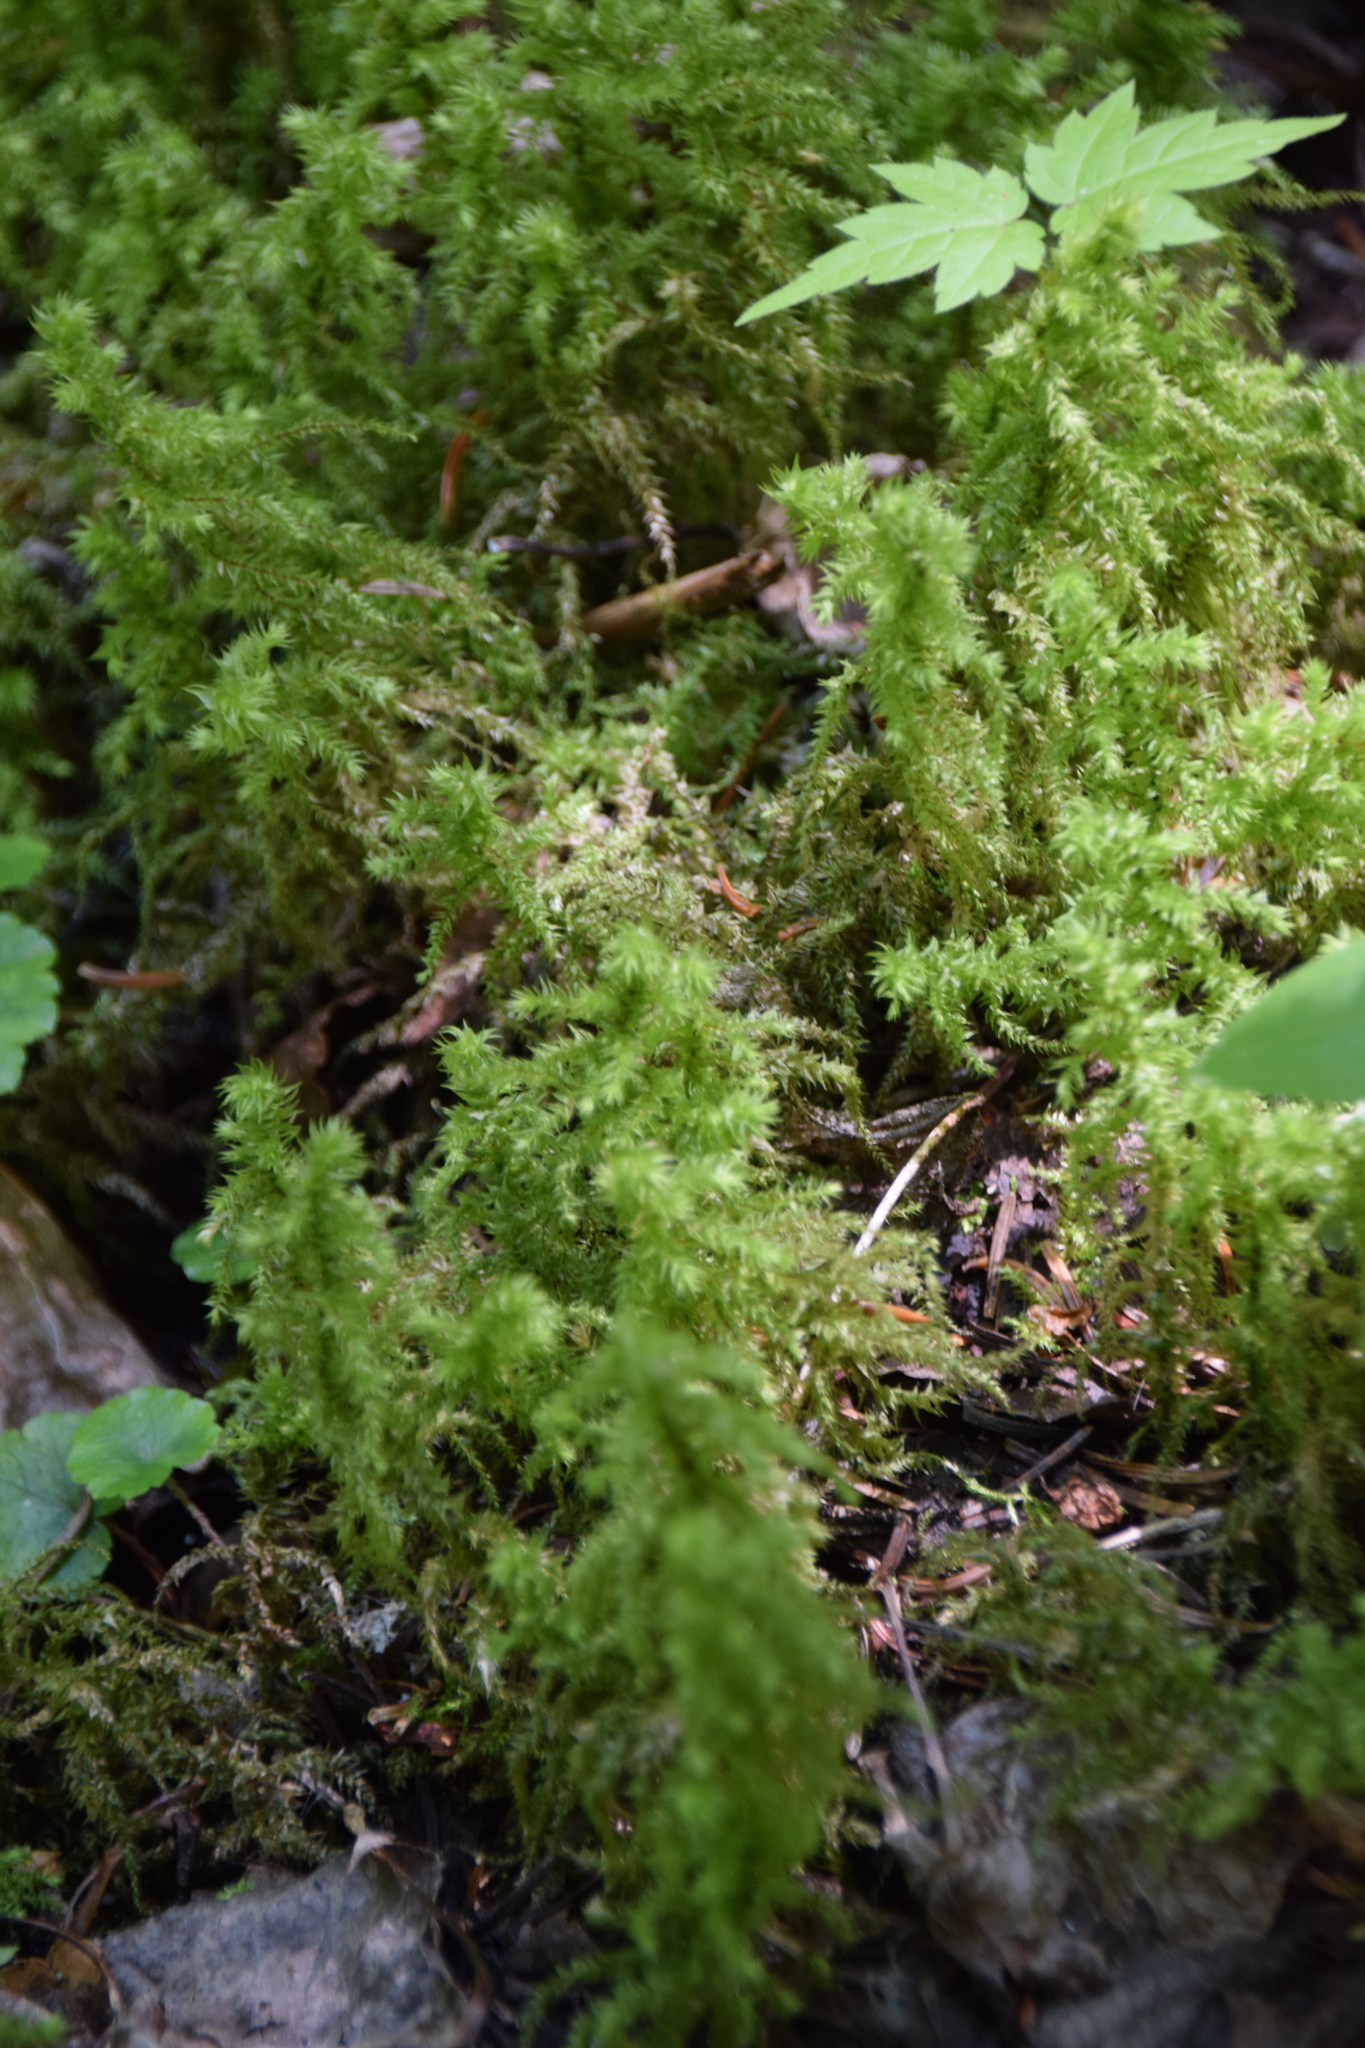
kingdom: Plantae
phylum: Bryophyta
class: Bryopsida
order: Hypnales
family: Hylocomiaceae
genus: Hylocomiadelphus
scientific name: Hylocomiadelphus triquetrus
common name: Rough goose neck moss
